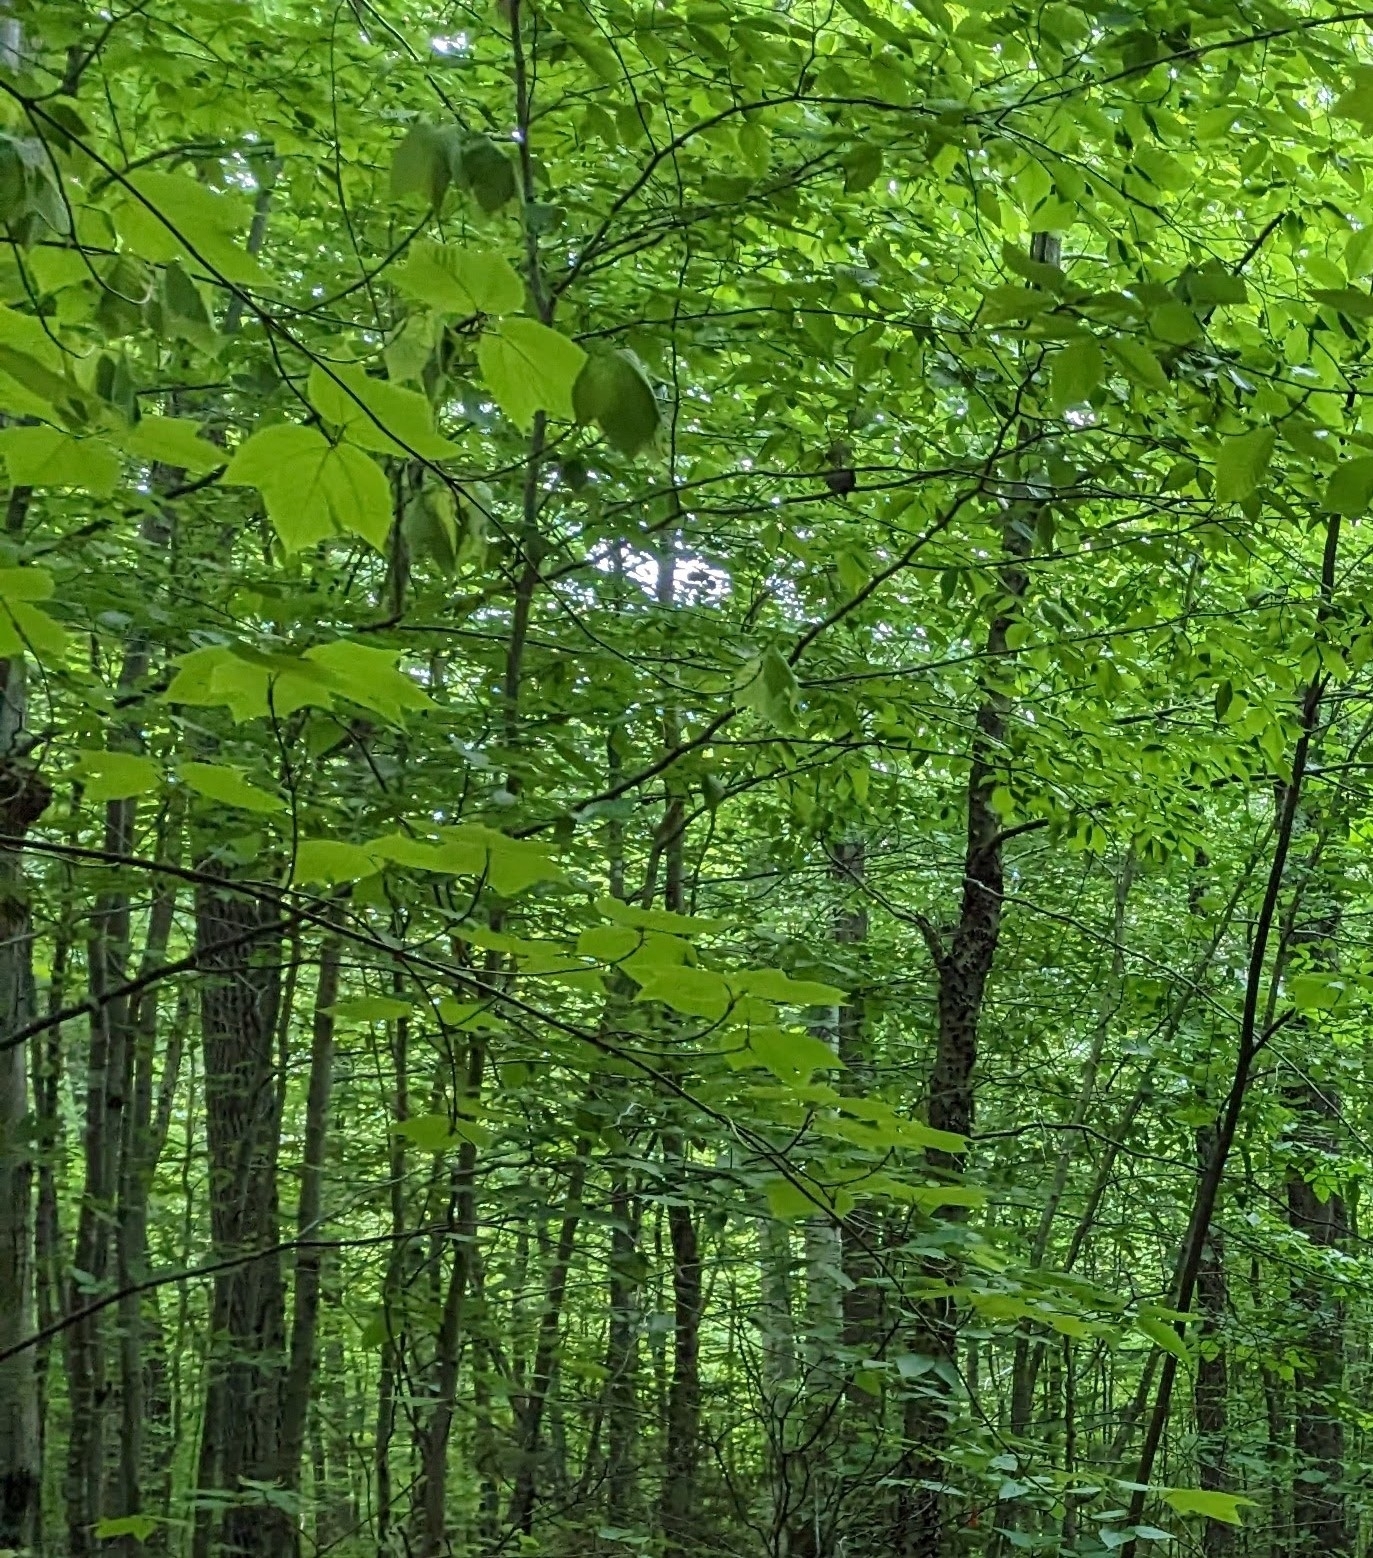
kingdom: Plantae
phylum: Tracheophyta
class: Magnoliopsida
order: Sapindales
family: Sapindaceae
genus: Acer
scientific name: Acer pensylvanicum
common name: Moosewood
